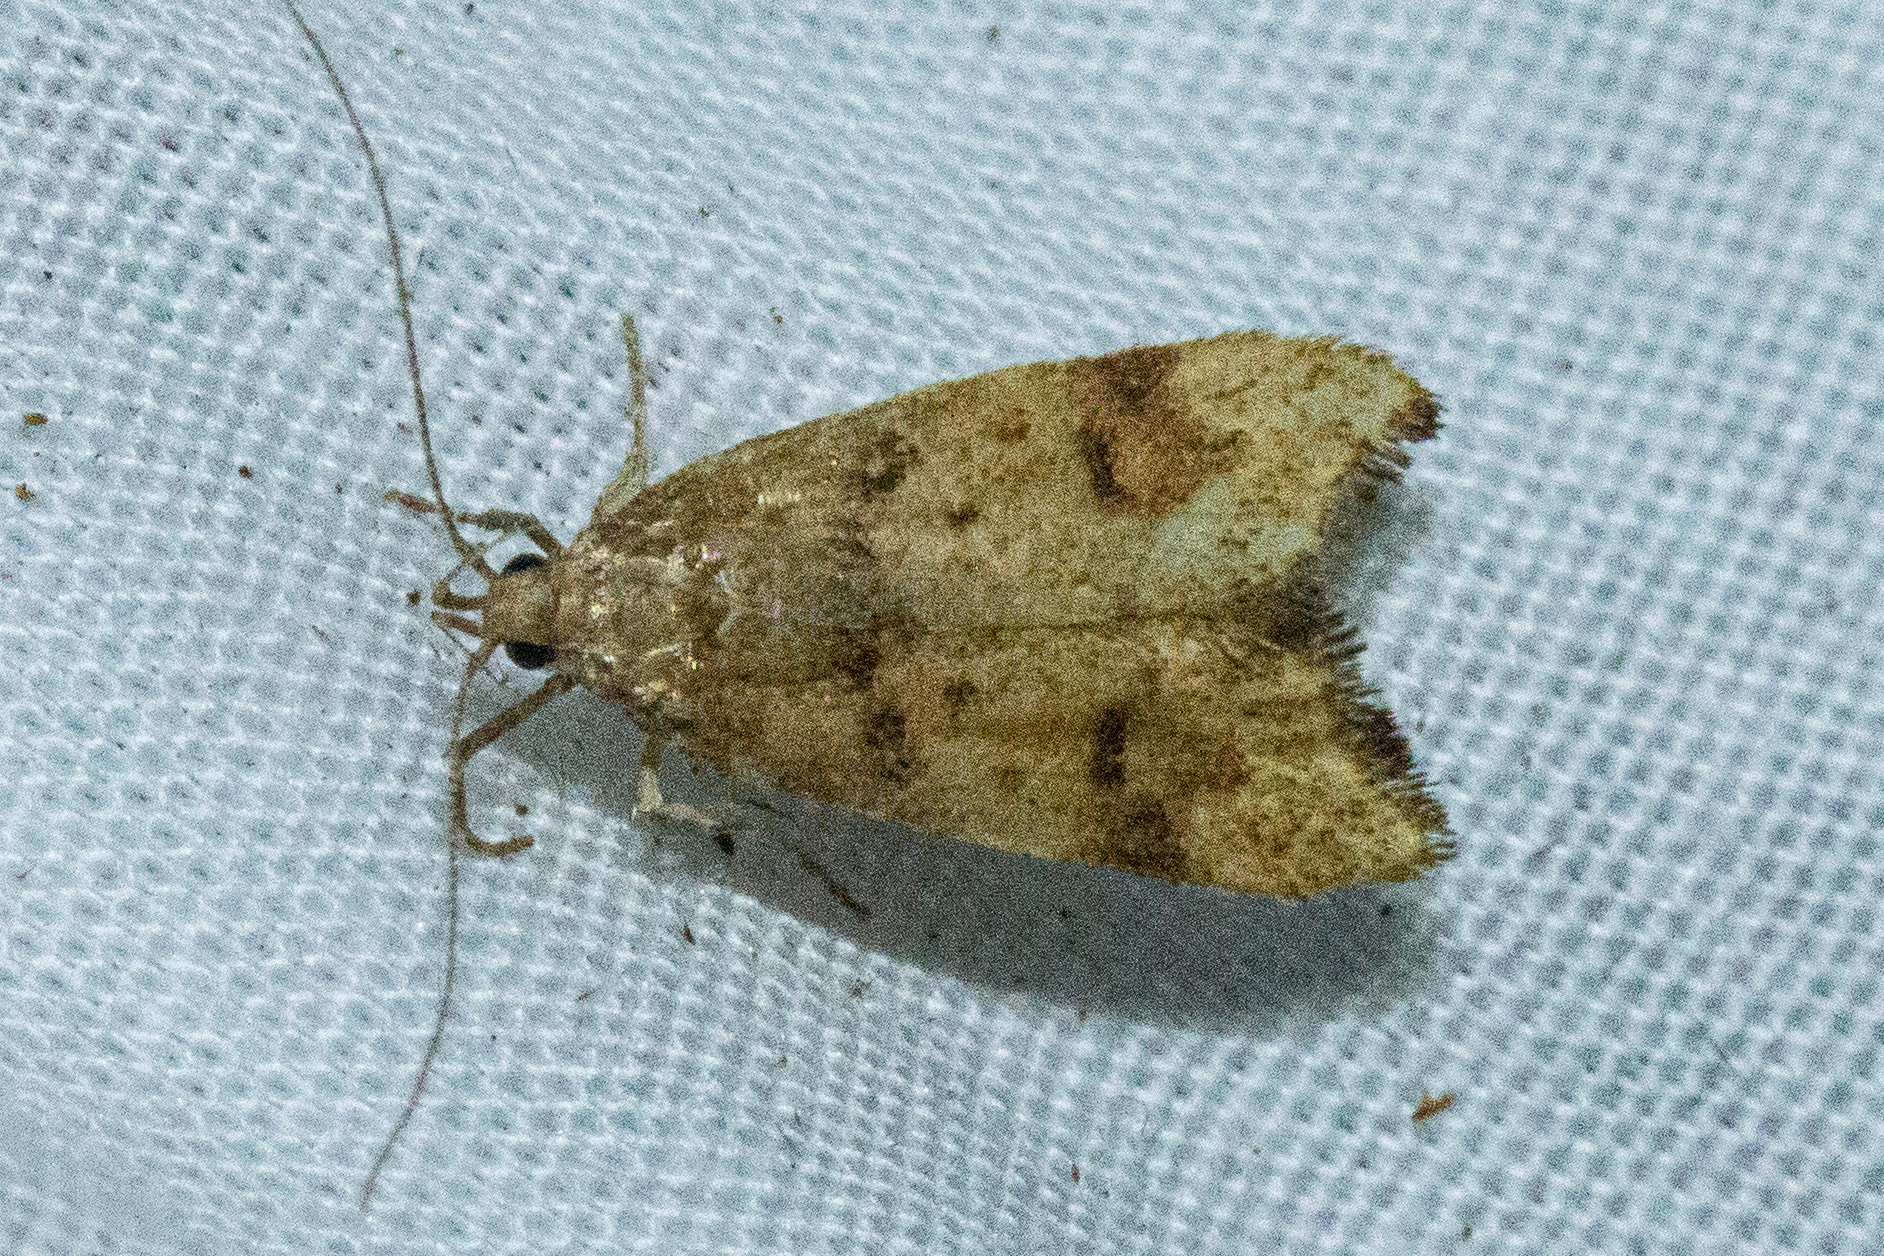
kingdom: Animalia
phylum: Arthropoda
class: Insecta
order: Lepidoptera
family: Oecophoridae
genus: Gymnobathra
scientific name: Gymnobathra hamatella
